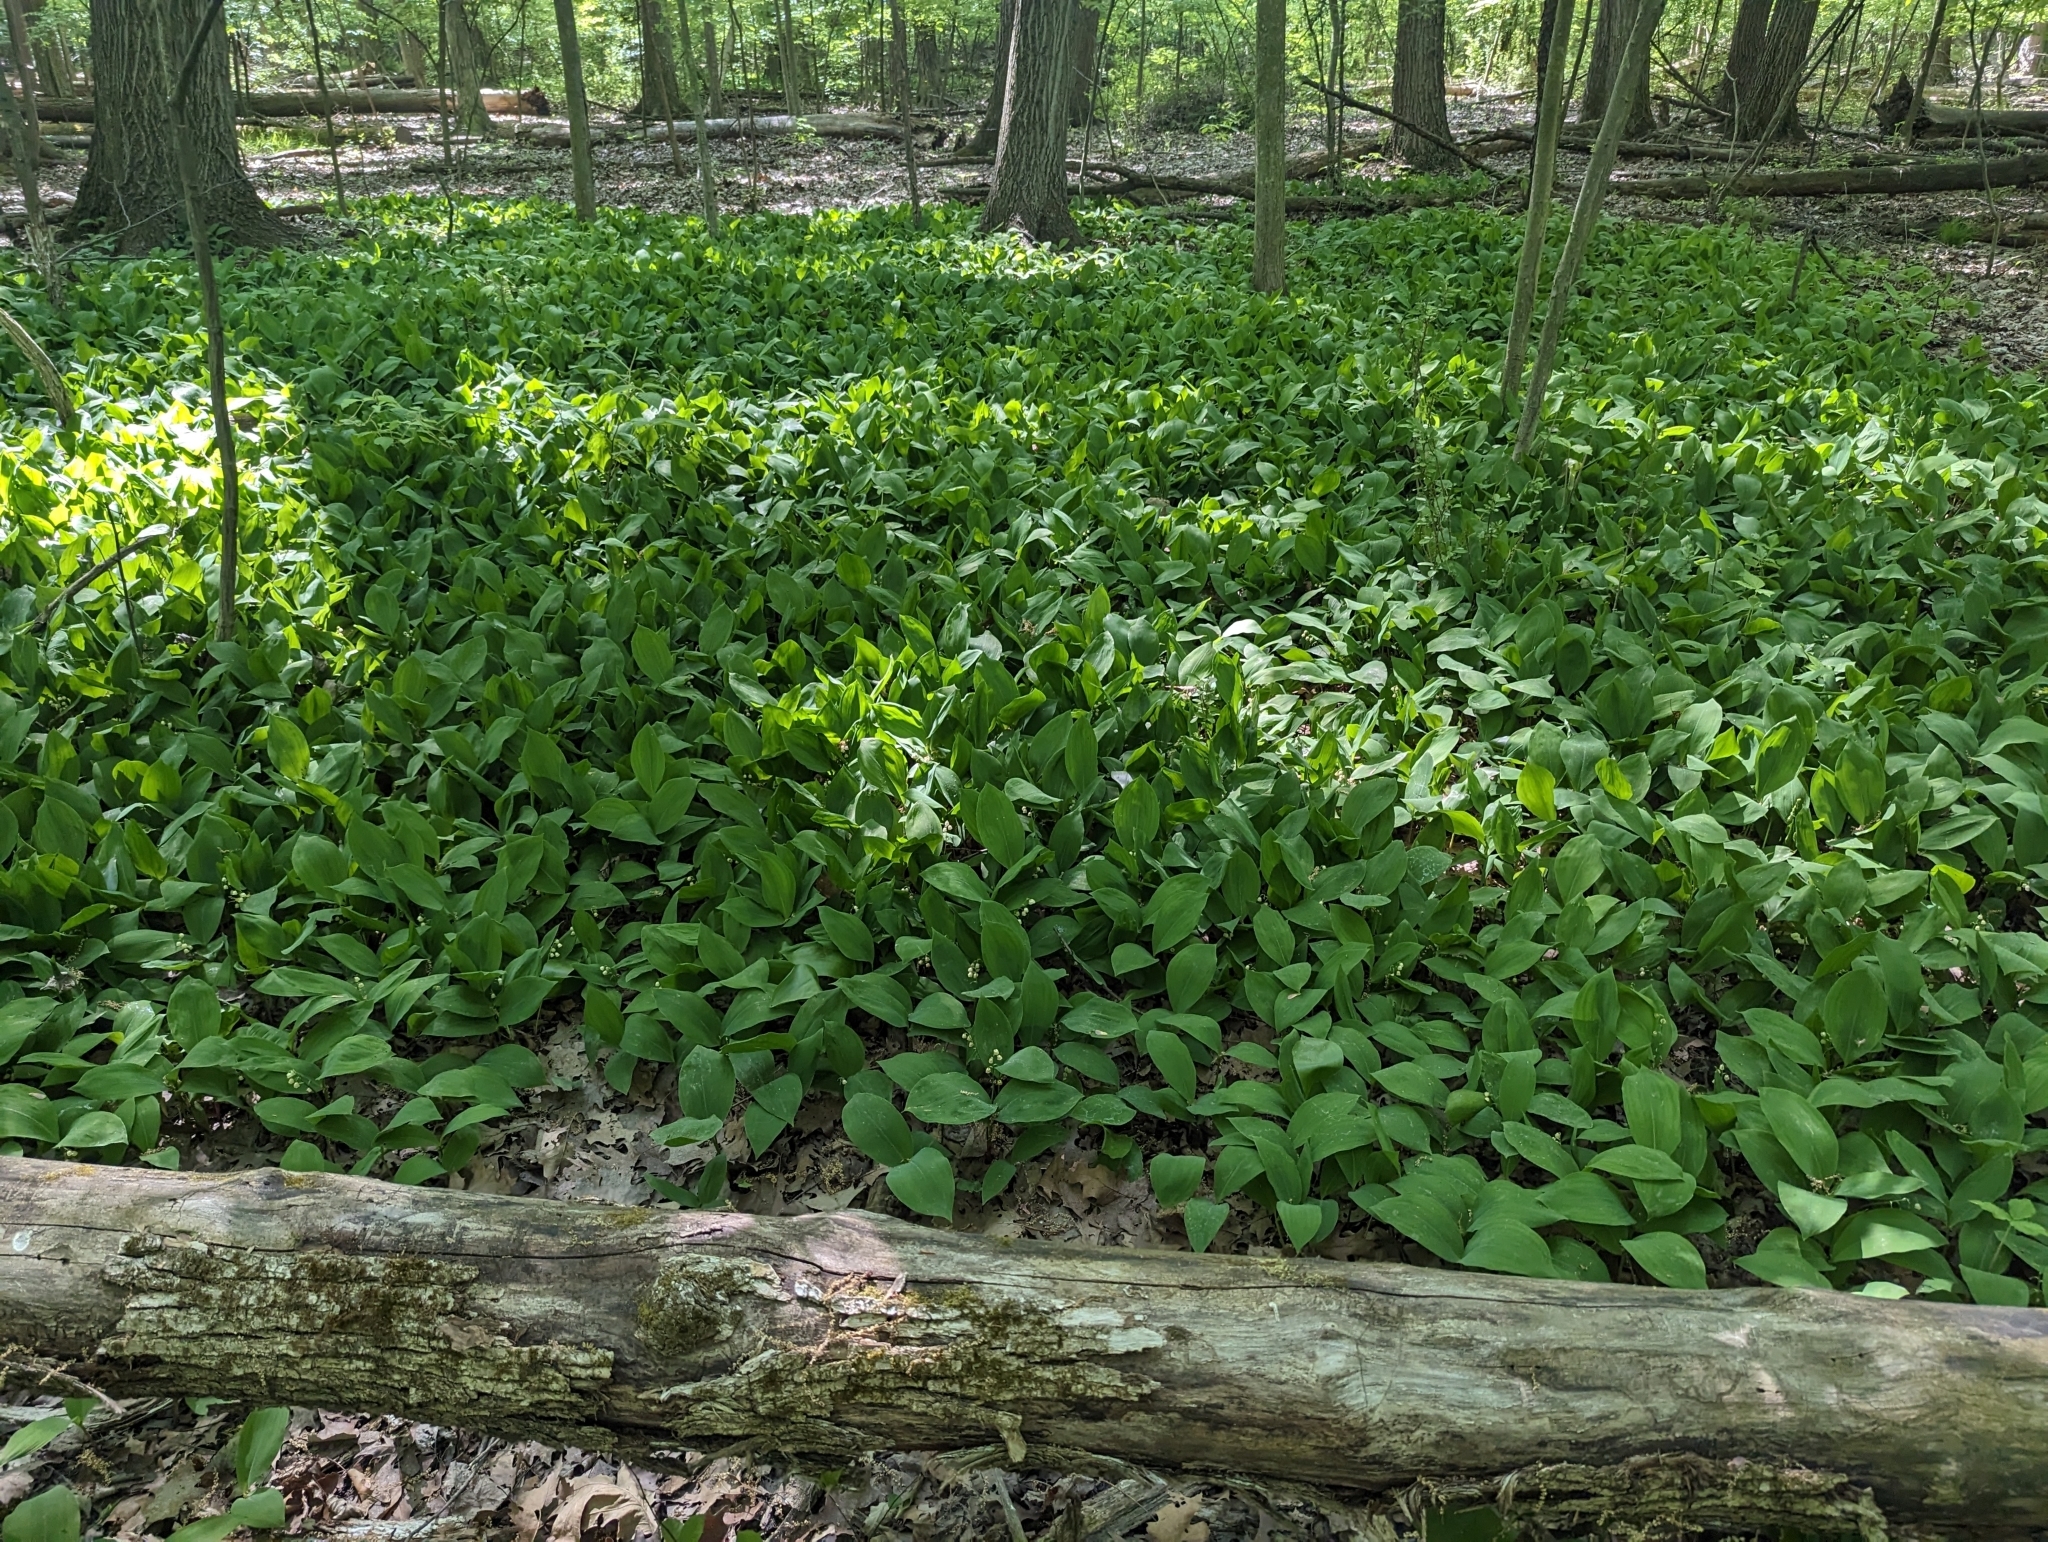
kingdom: Plantae
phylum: Tracheophyta
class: Liliopsida
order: Asparagales
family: Asparagaceae
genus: Convallaria
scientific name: Convallaria majalis
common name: Lily-of-the-valley
